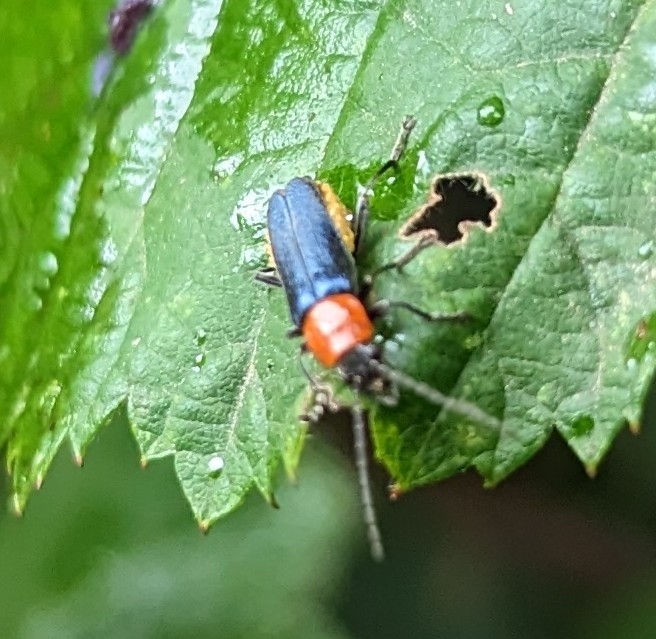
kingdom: Animalia
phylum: Arthropoda
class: Insecta
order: Coleoptera
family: Cantharidae
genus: Chauliognathus
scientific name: Chauliognathus
